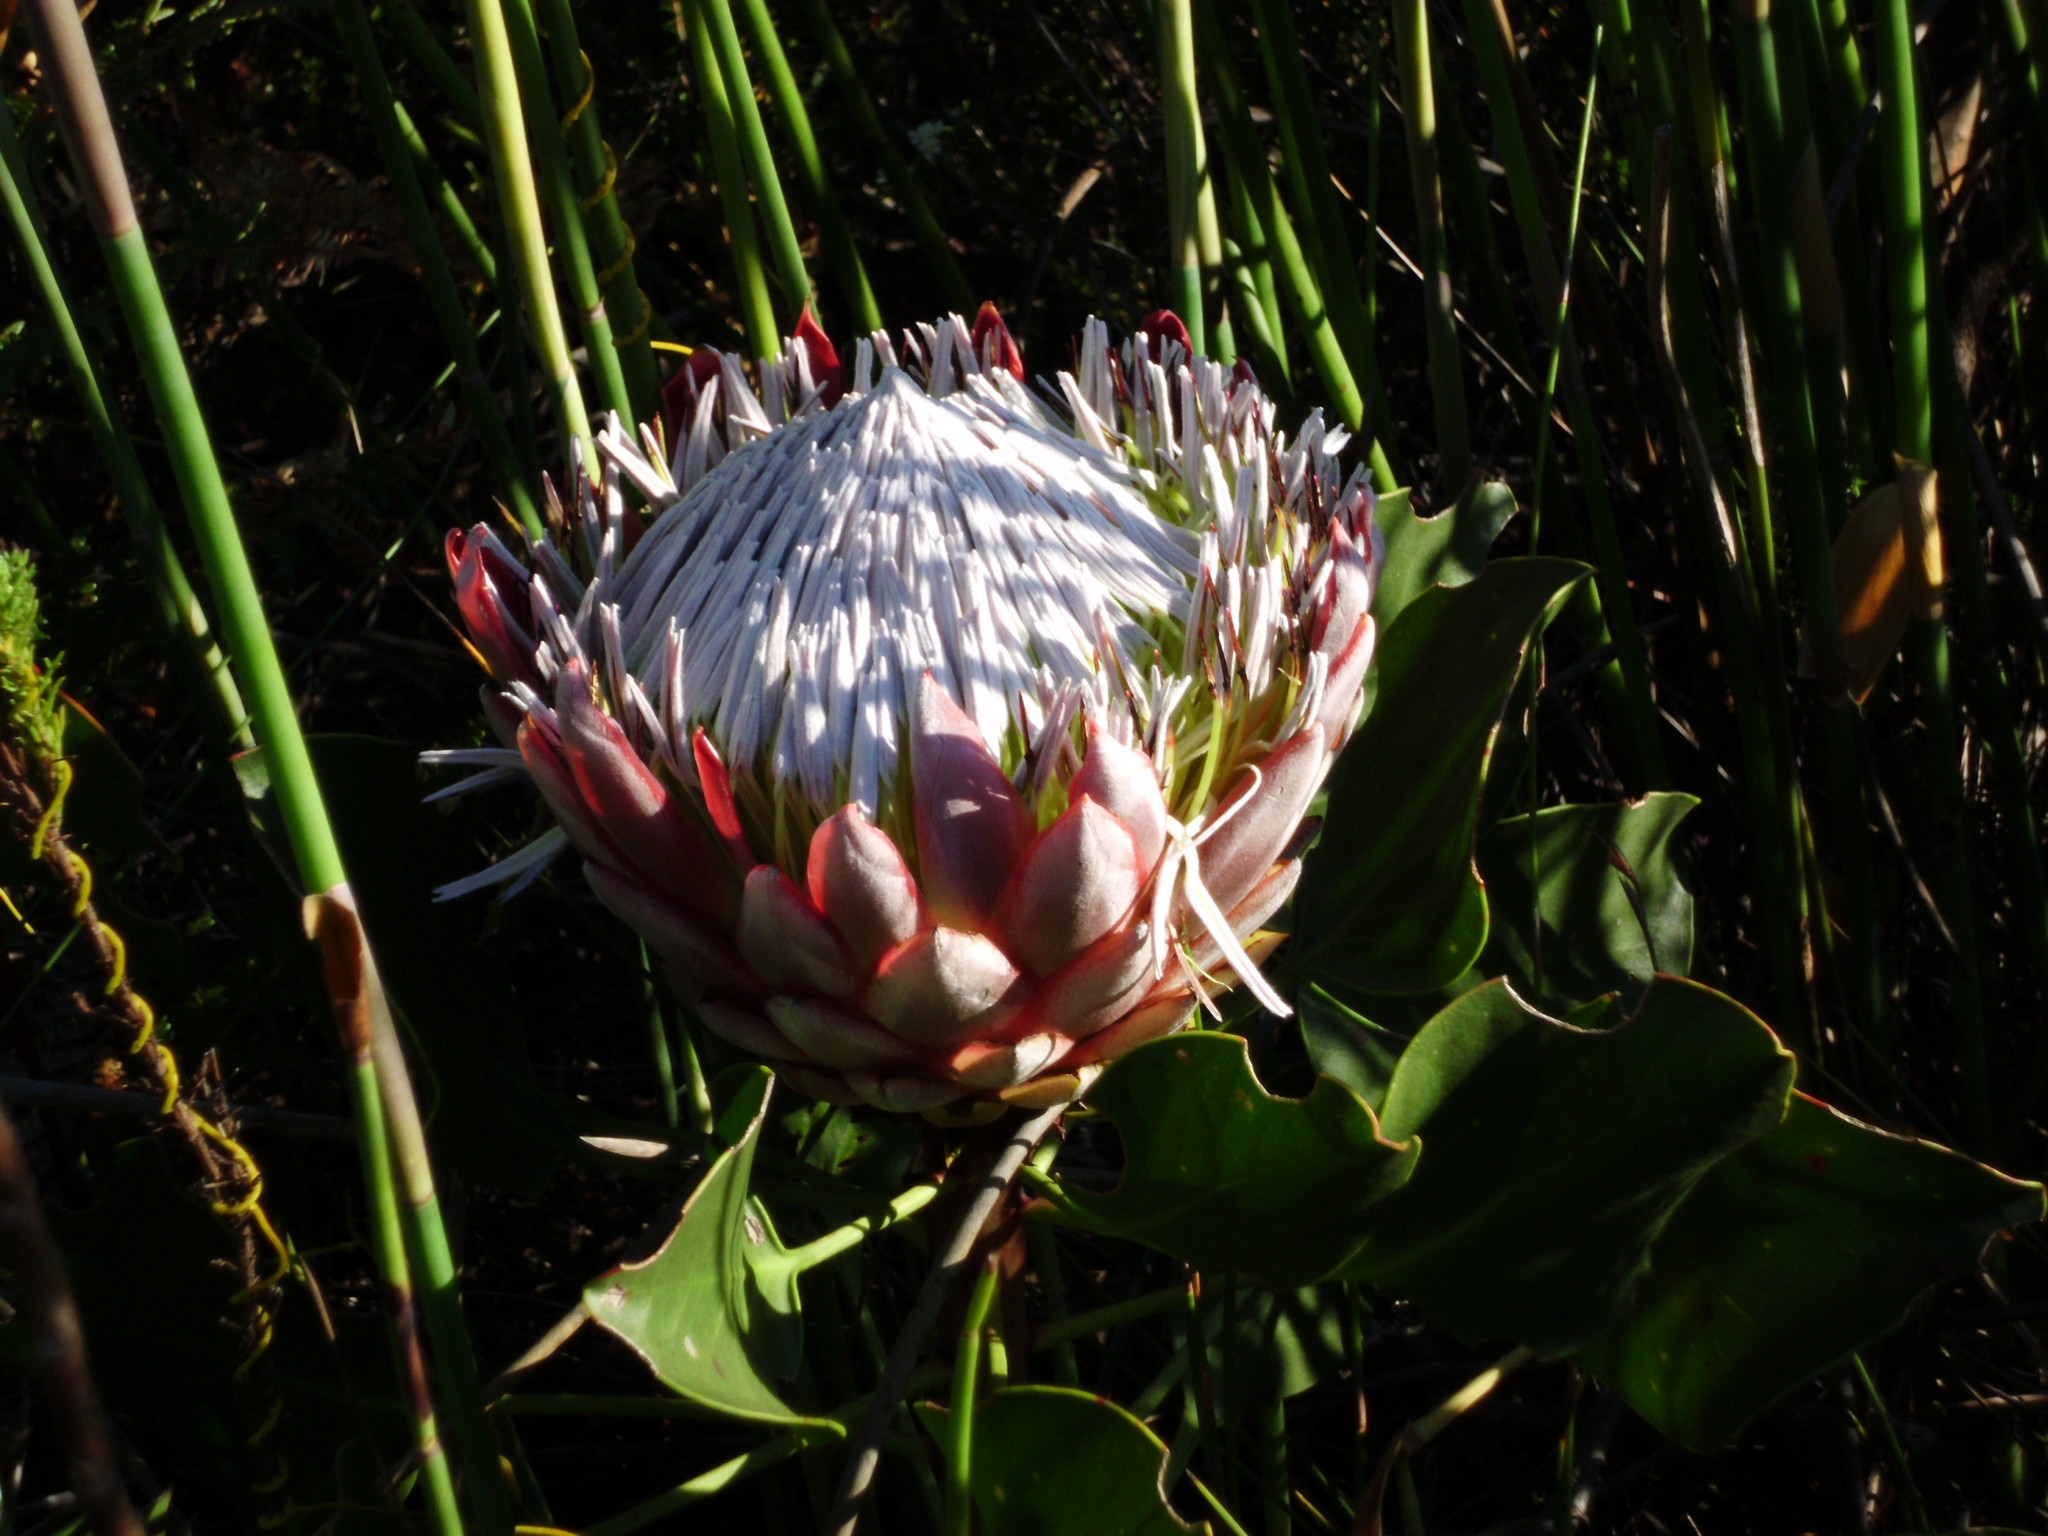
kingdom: Plantae
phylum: Tracheophyta
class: Magnoliopsida
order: Proteales
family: Proteaceae
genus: Protea
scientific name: Protea cynaroides
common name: King protea
